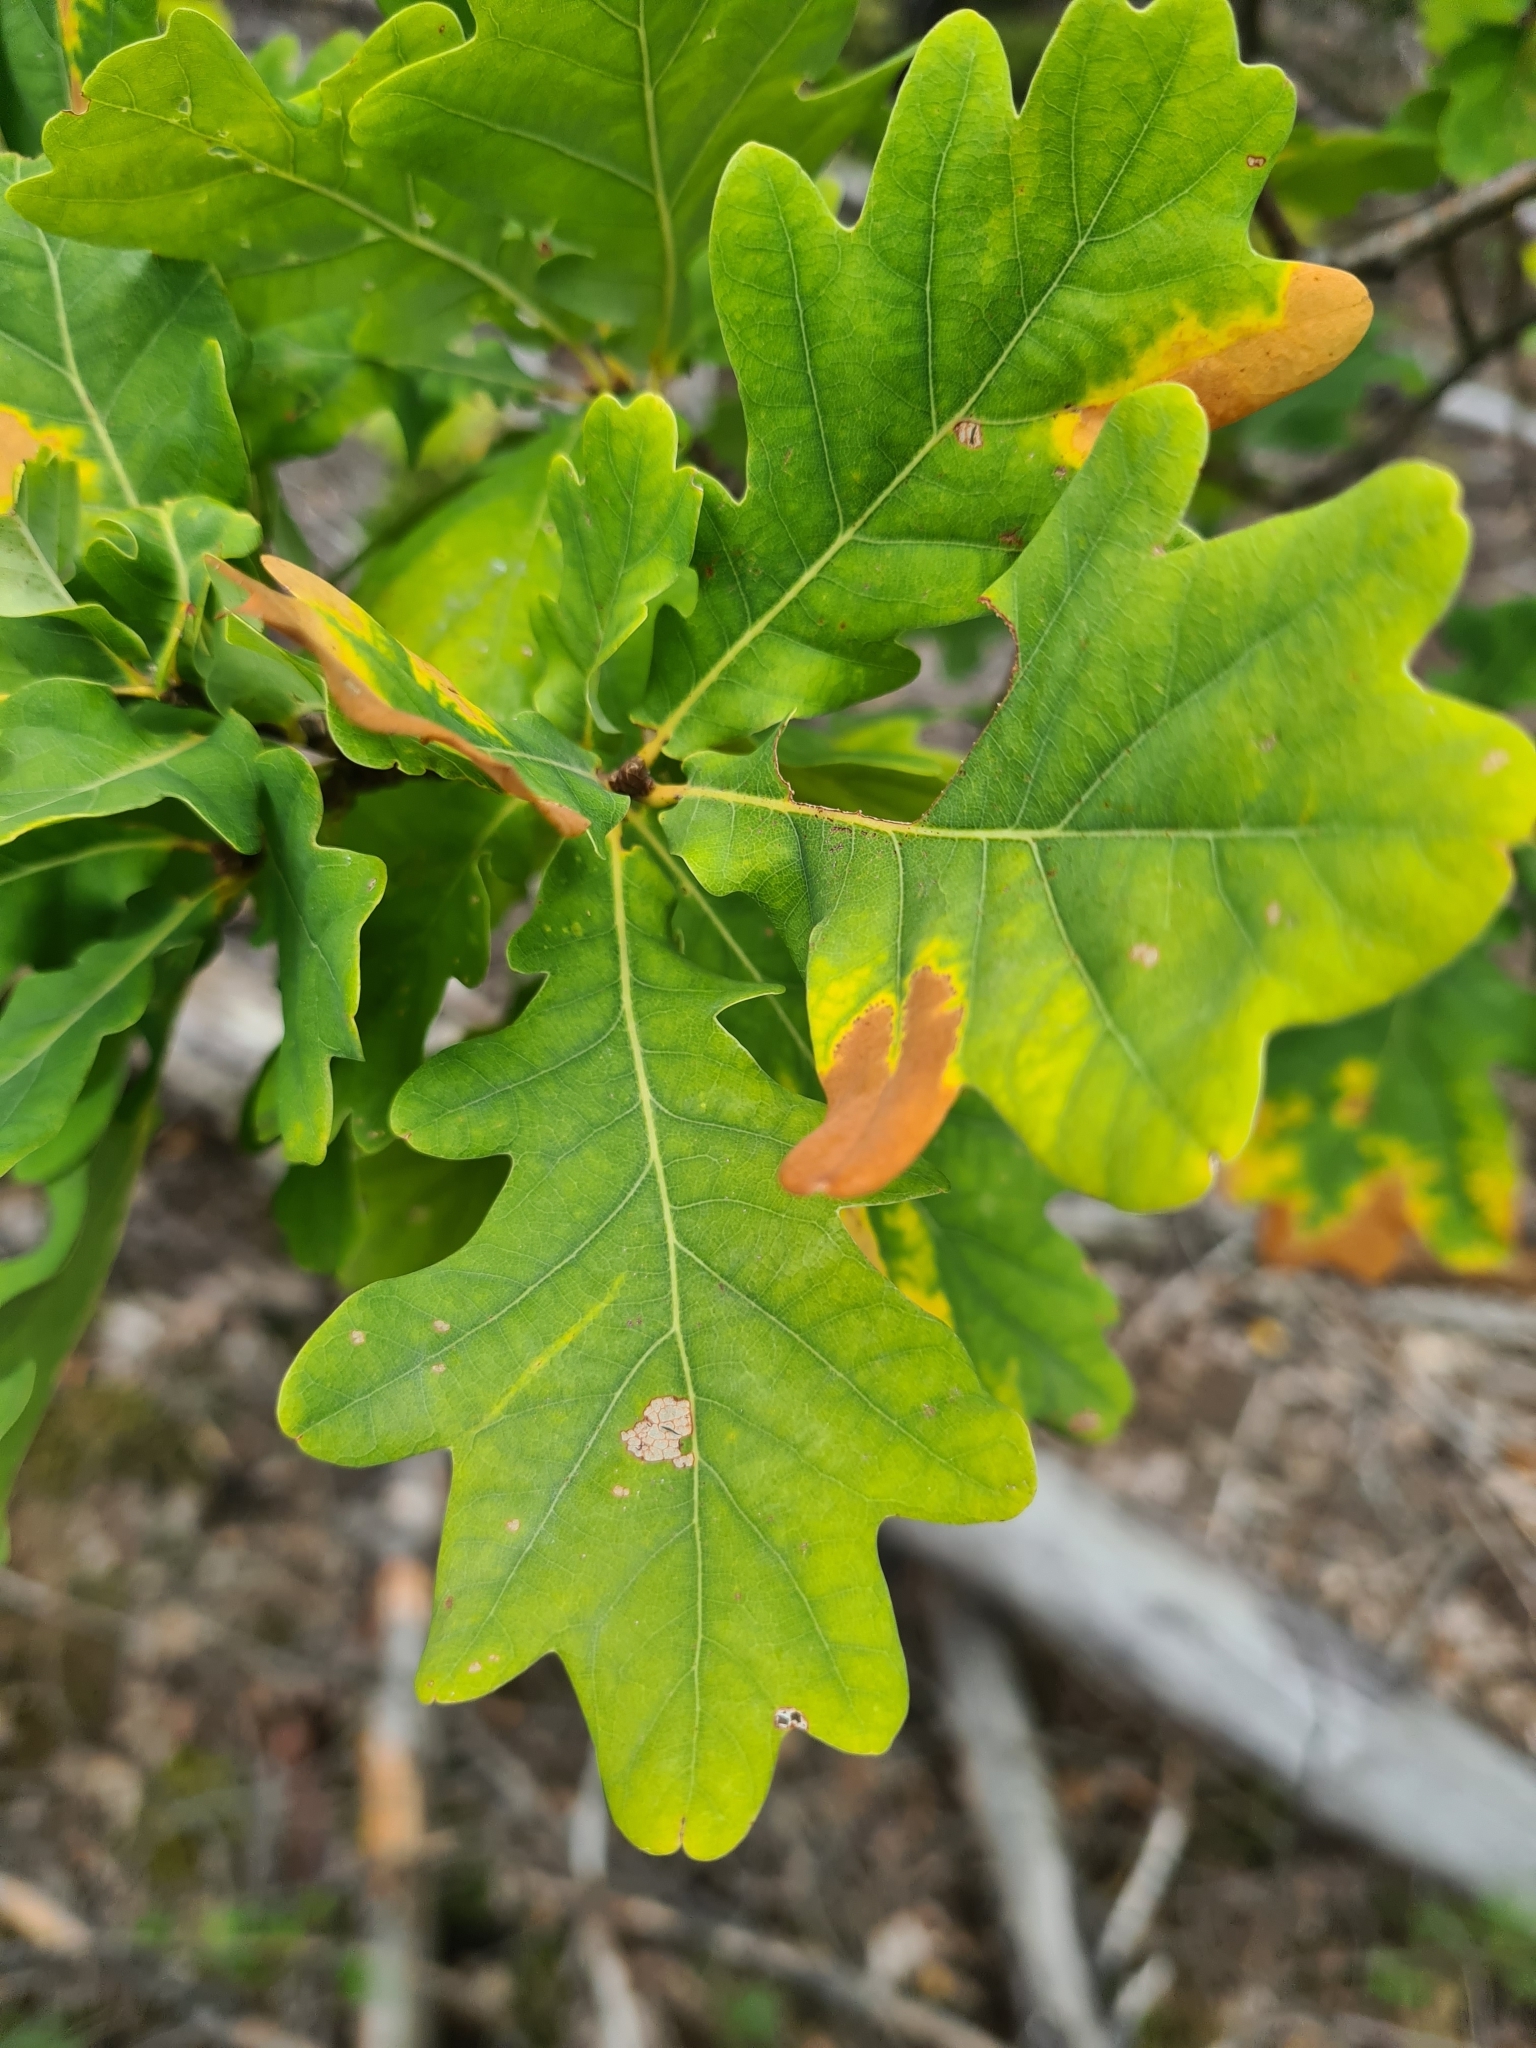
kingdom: Plantae
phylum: Tracheophyta
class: Magnoliopsida
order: Fagales
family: Fagaceae
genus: Quercus
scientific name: Quercus robur
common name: Pedunculate oak
